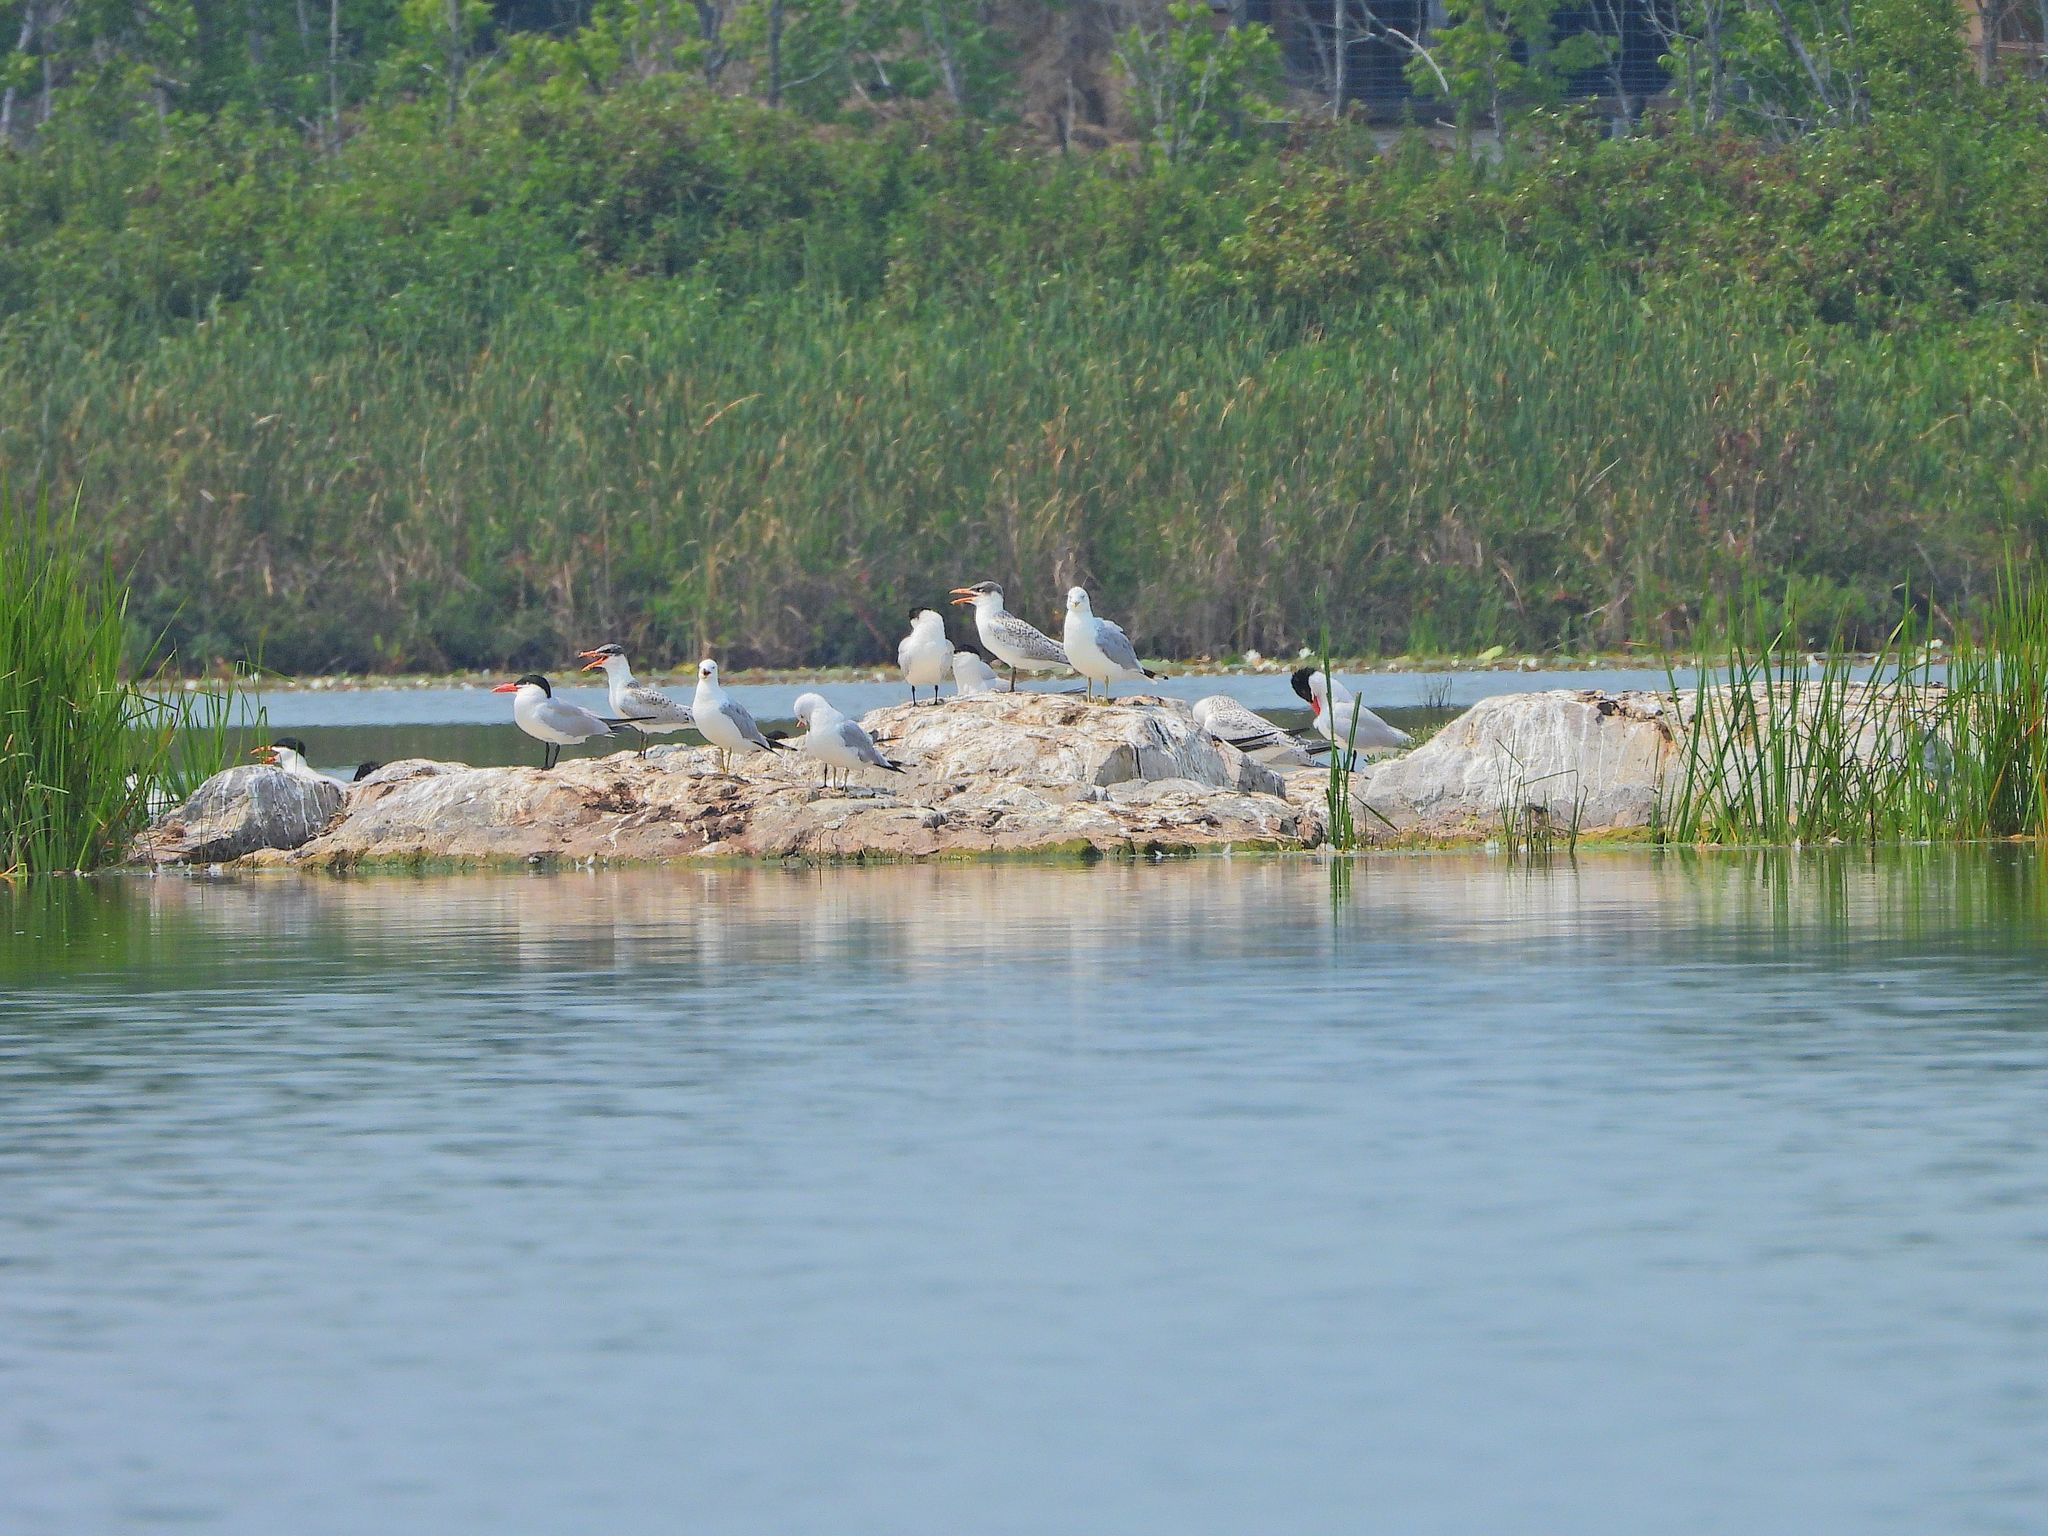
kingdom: Animalia
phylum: Chordata
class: Aves
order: Charadriiformes
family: Laridae
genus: Hydroprogne
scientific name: Hydroprogne caspia
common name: Caspian tern
